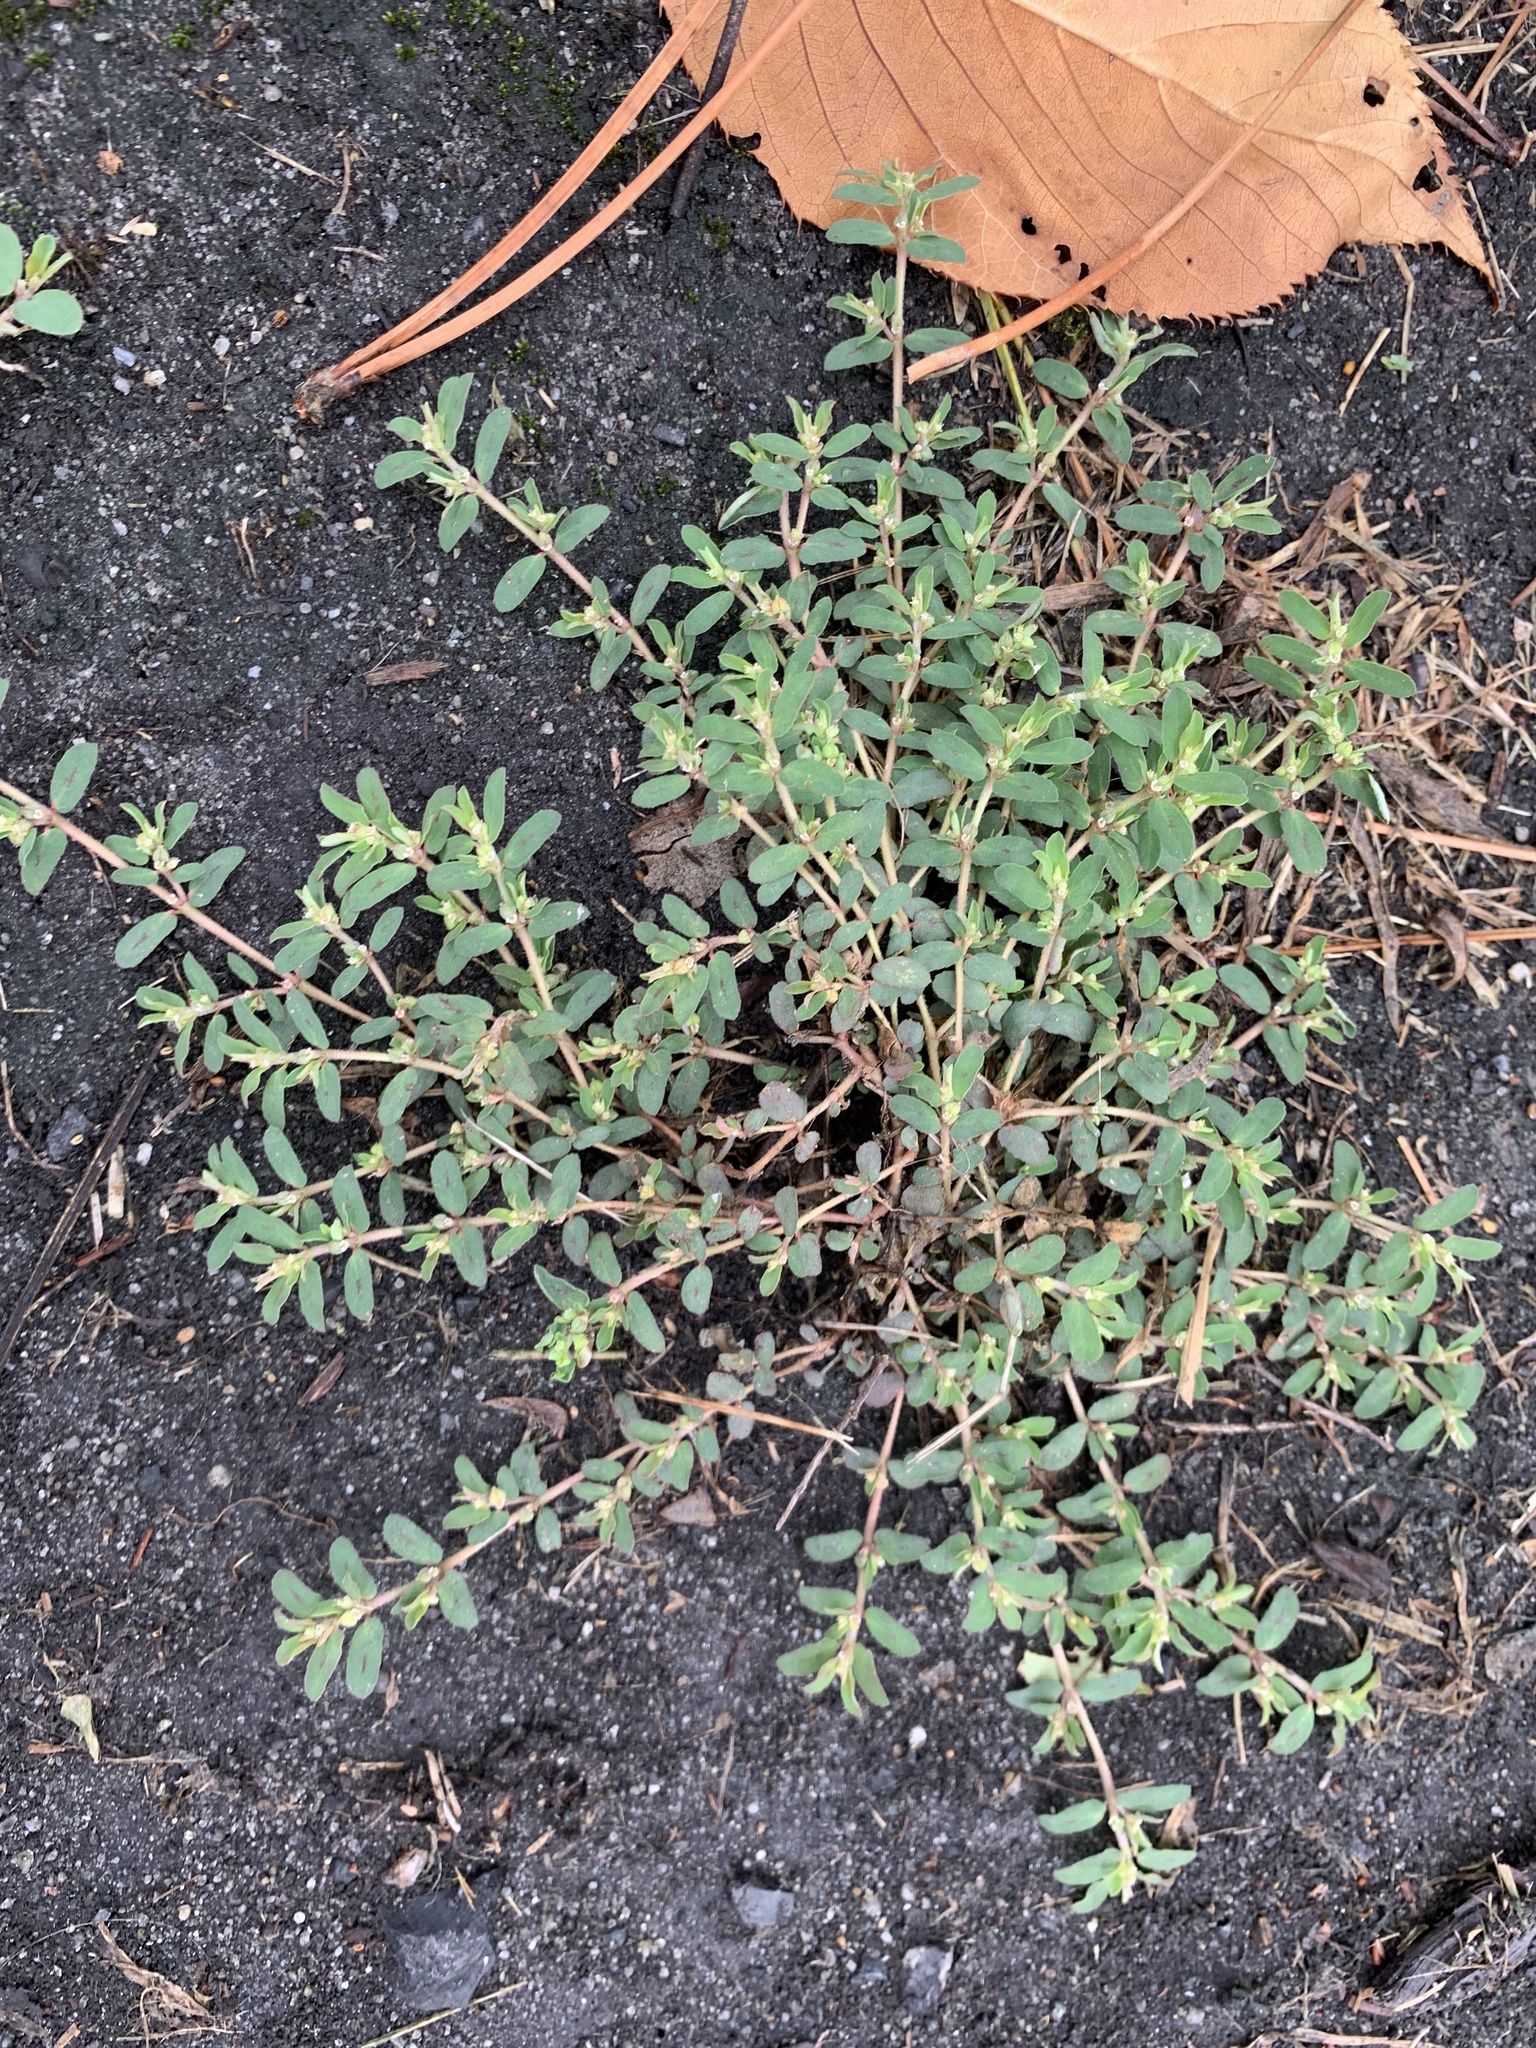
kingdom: Plantae
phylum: Tracheophyta
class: Magnoliopsida
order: Malpighiales
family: Euphorbiaceae
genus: Euphorbia
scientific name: Euphorbia maculata
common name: Spotted spurge
